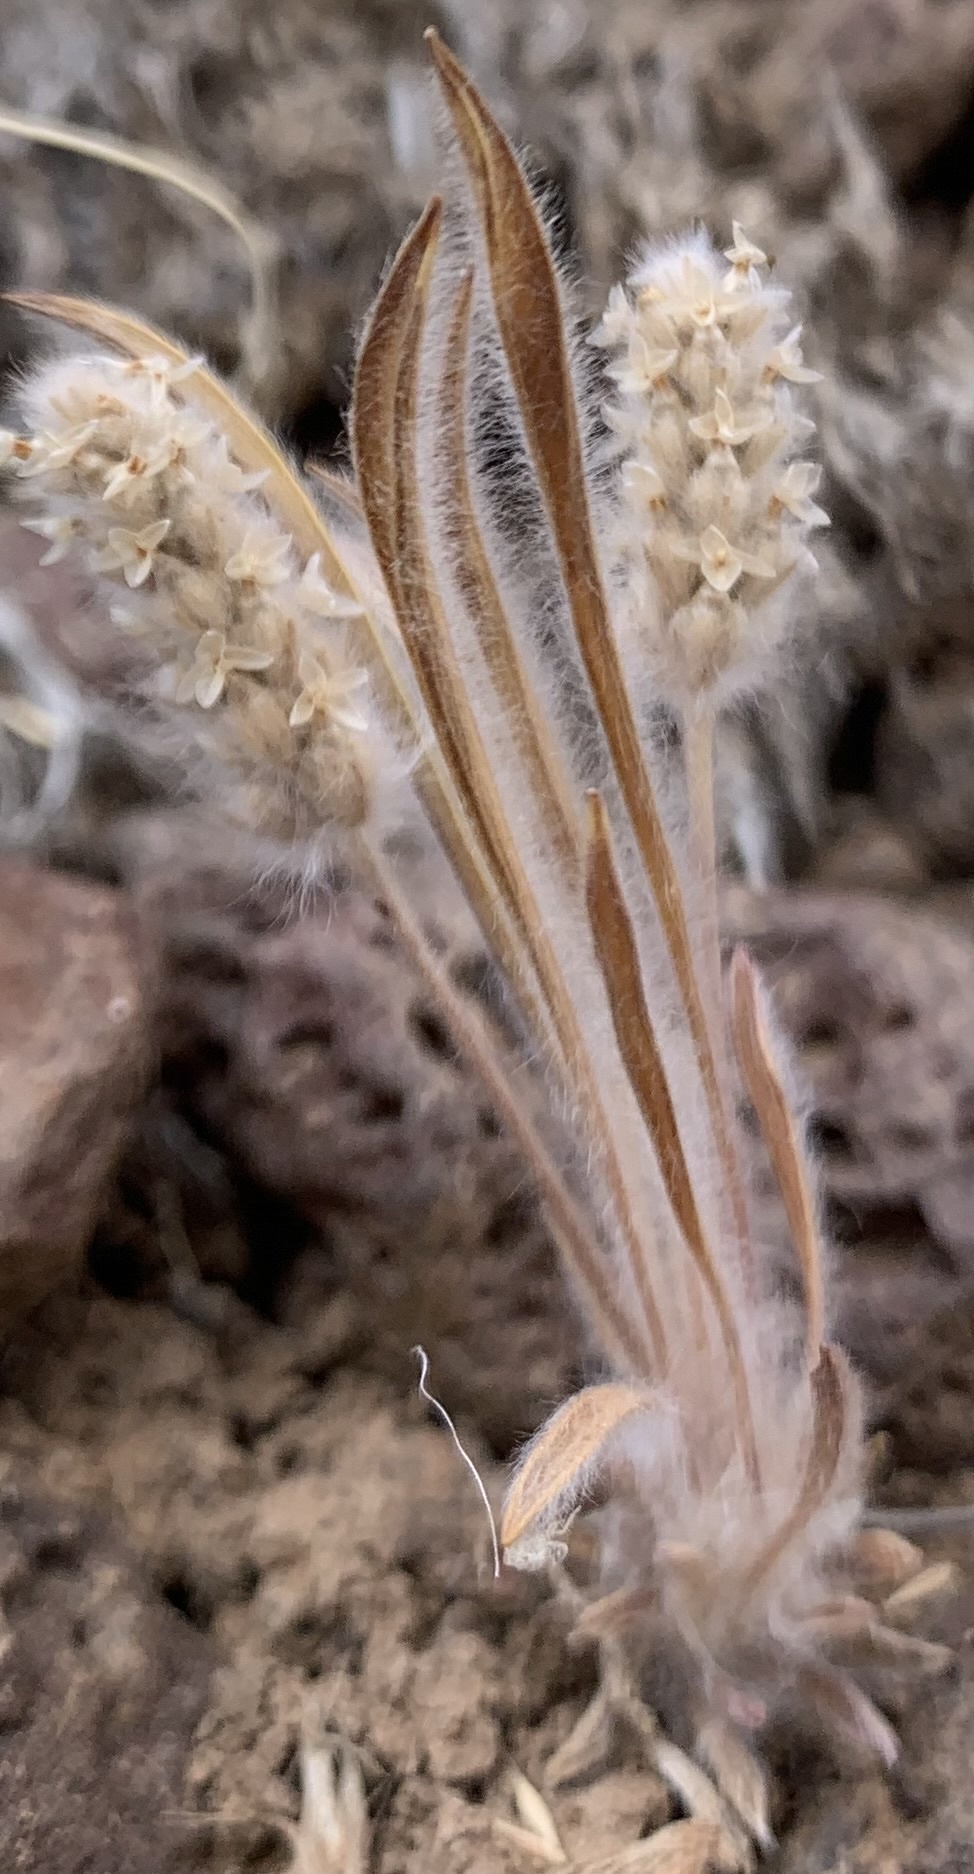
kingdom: Plantae
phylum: Tracheophyta
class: Magnoliopsida
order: Lamiales
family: Plantaginaceae
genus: Plantago
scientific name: Plantago patagonica
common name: Patagonia indian-wheat
